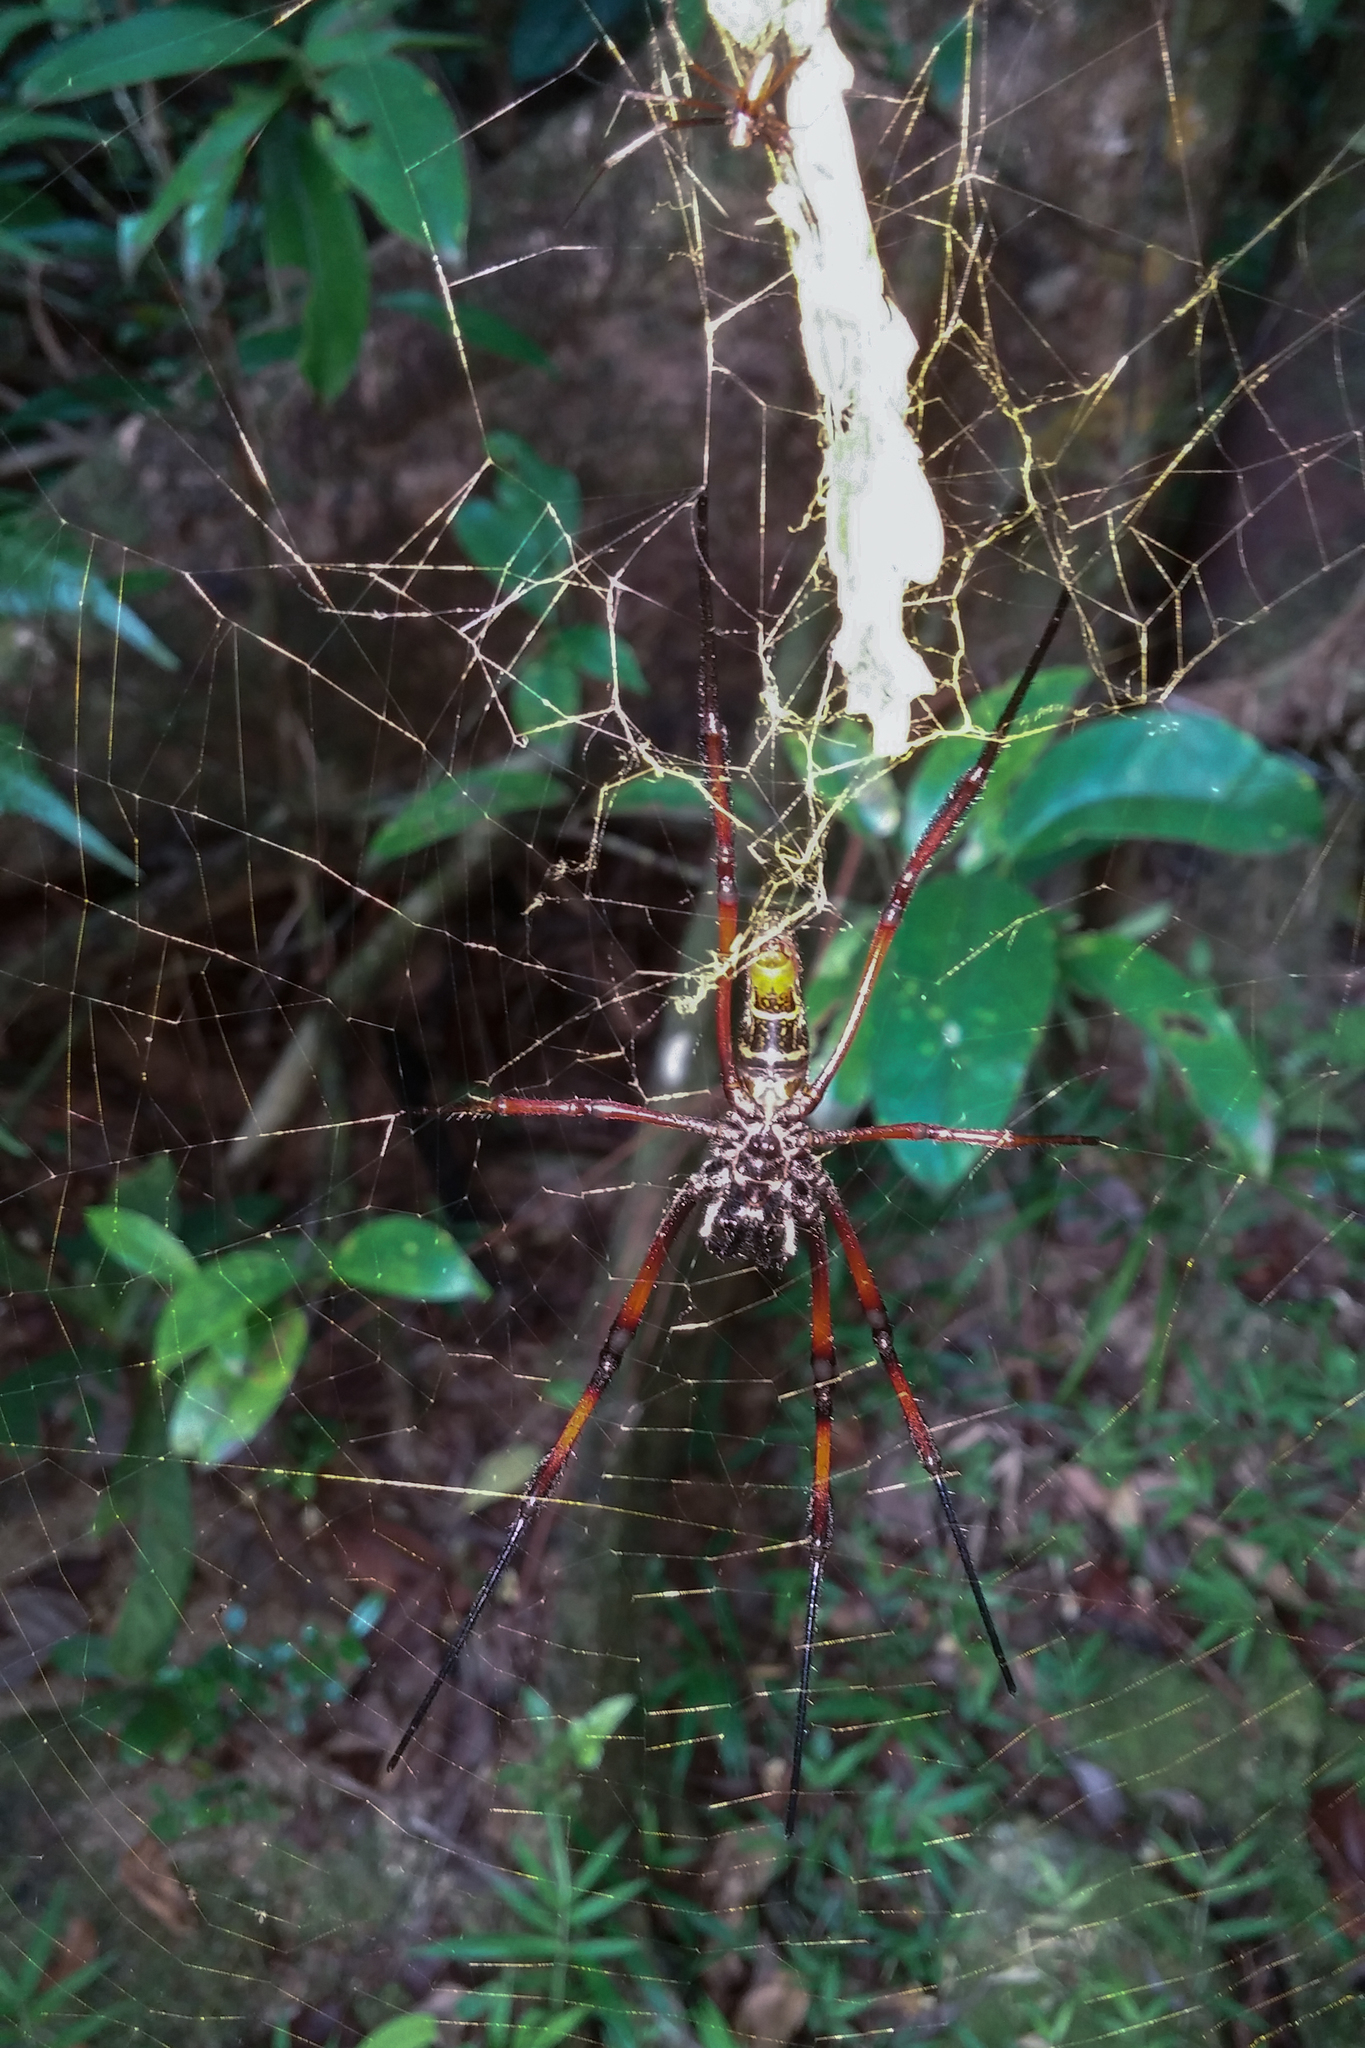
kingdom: Animalia
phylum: Arthropoda
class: Arachnida
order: Araneae
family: Araneidae
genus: Trichonephila
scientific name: Trichonephila inaurata
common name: Red-legged golden orb weaver
